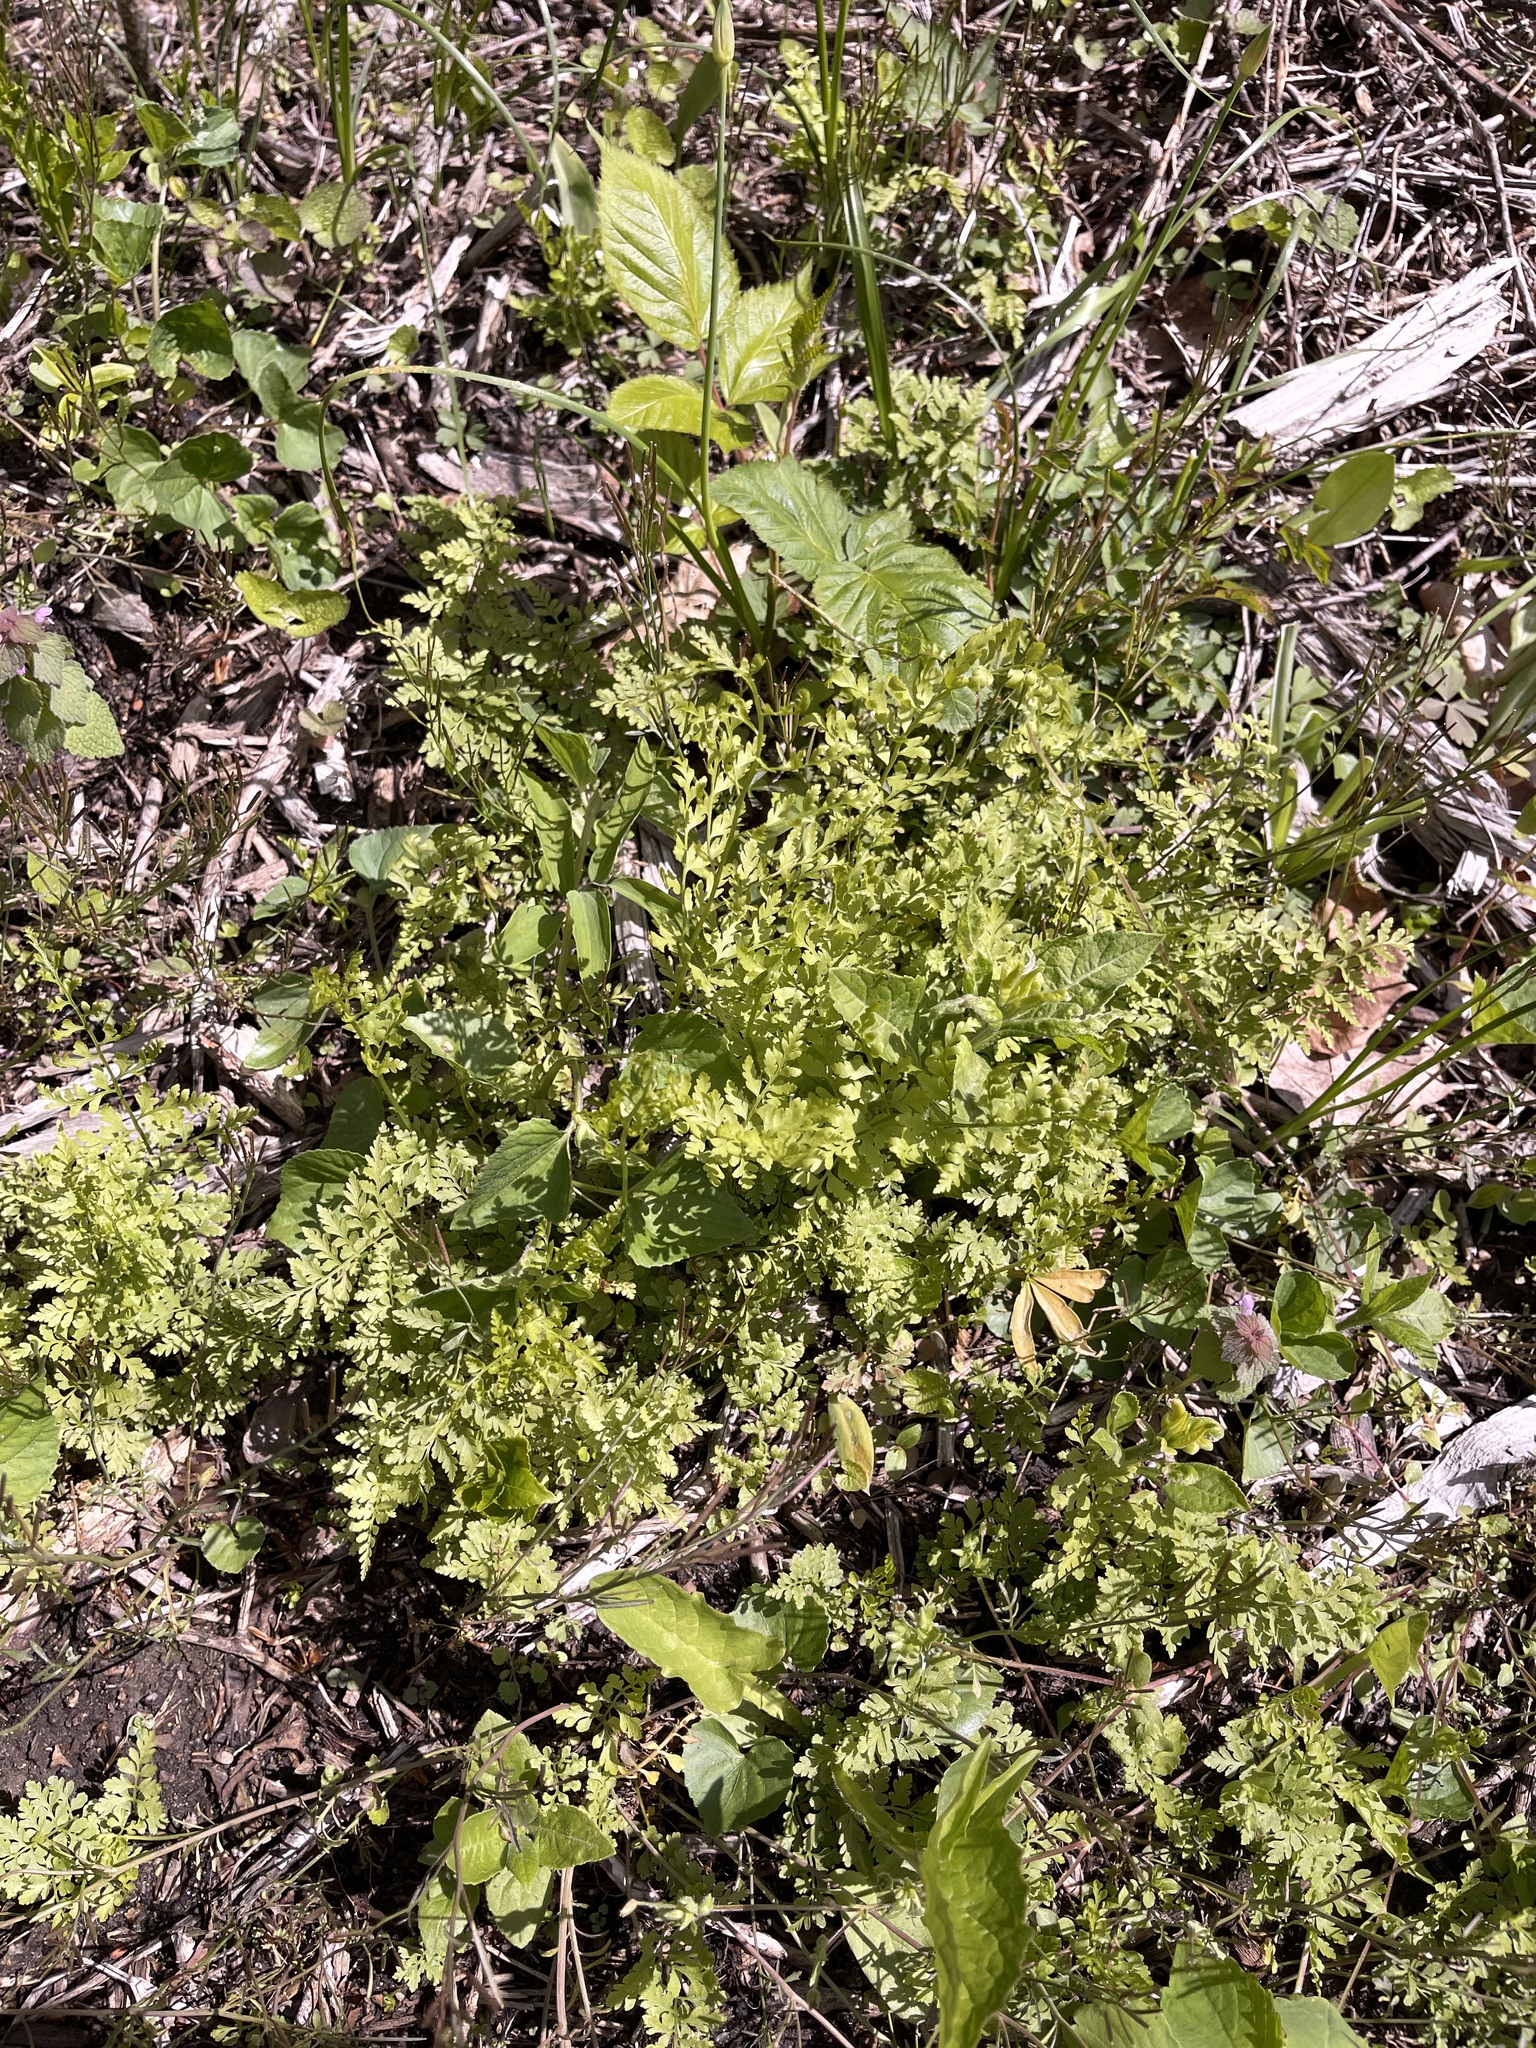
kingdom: Plantae
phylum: Tracheophyta
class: Polypodiopsida
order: Polypodiales
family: Cystopteridaceae
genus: Cystopteris
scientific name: Cystopteris protrusa
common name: Lowland brittle fern
